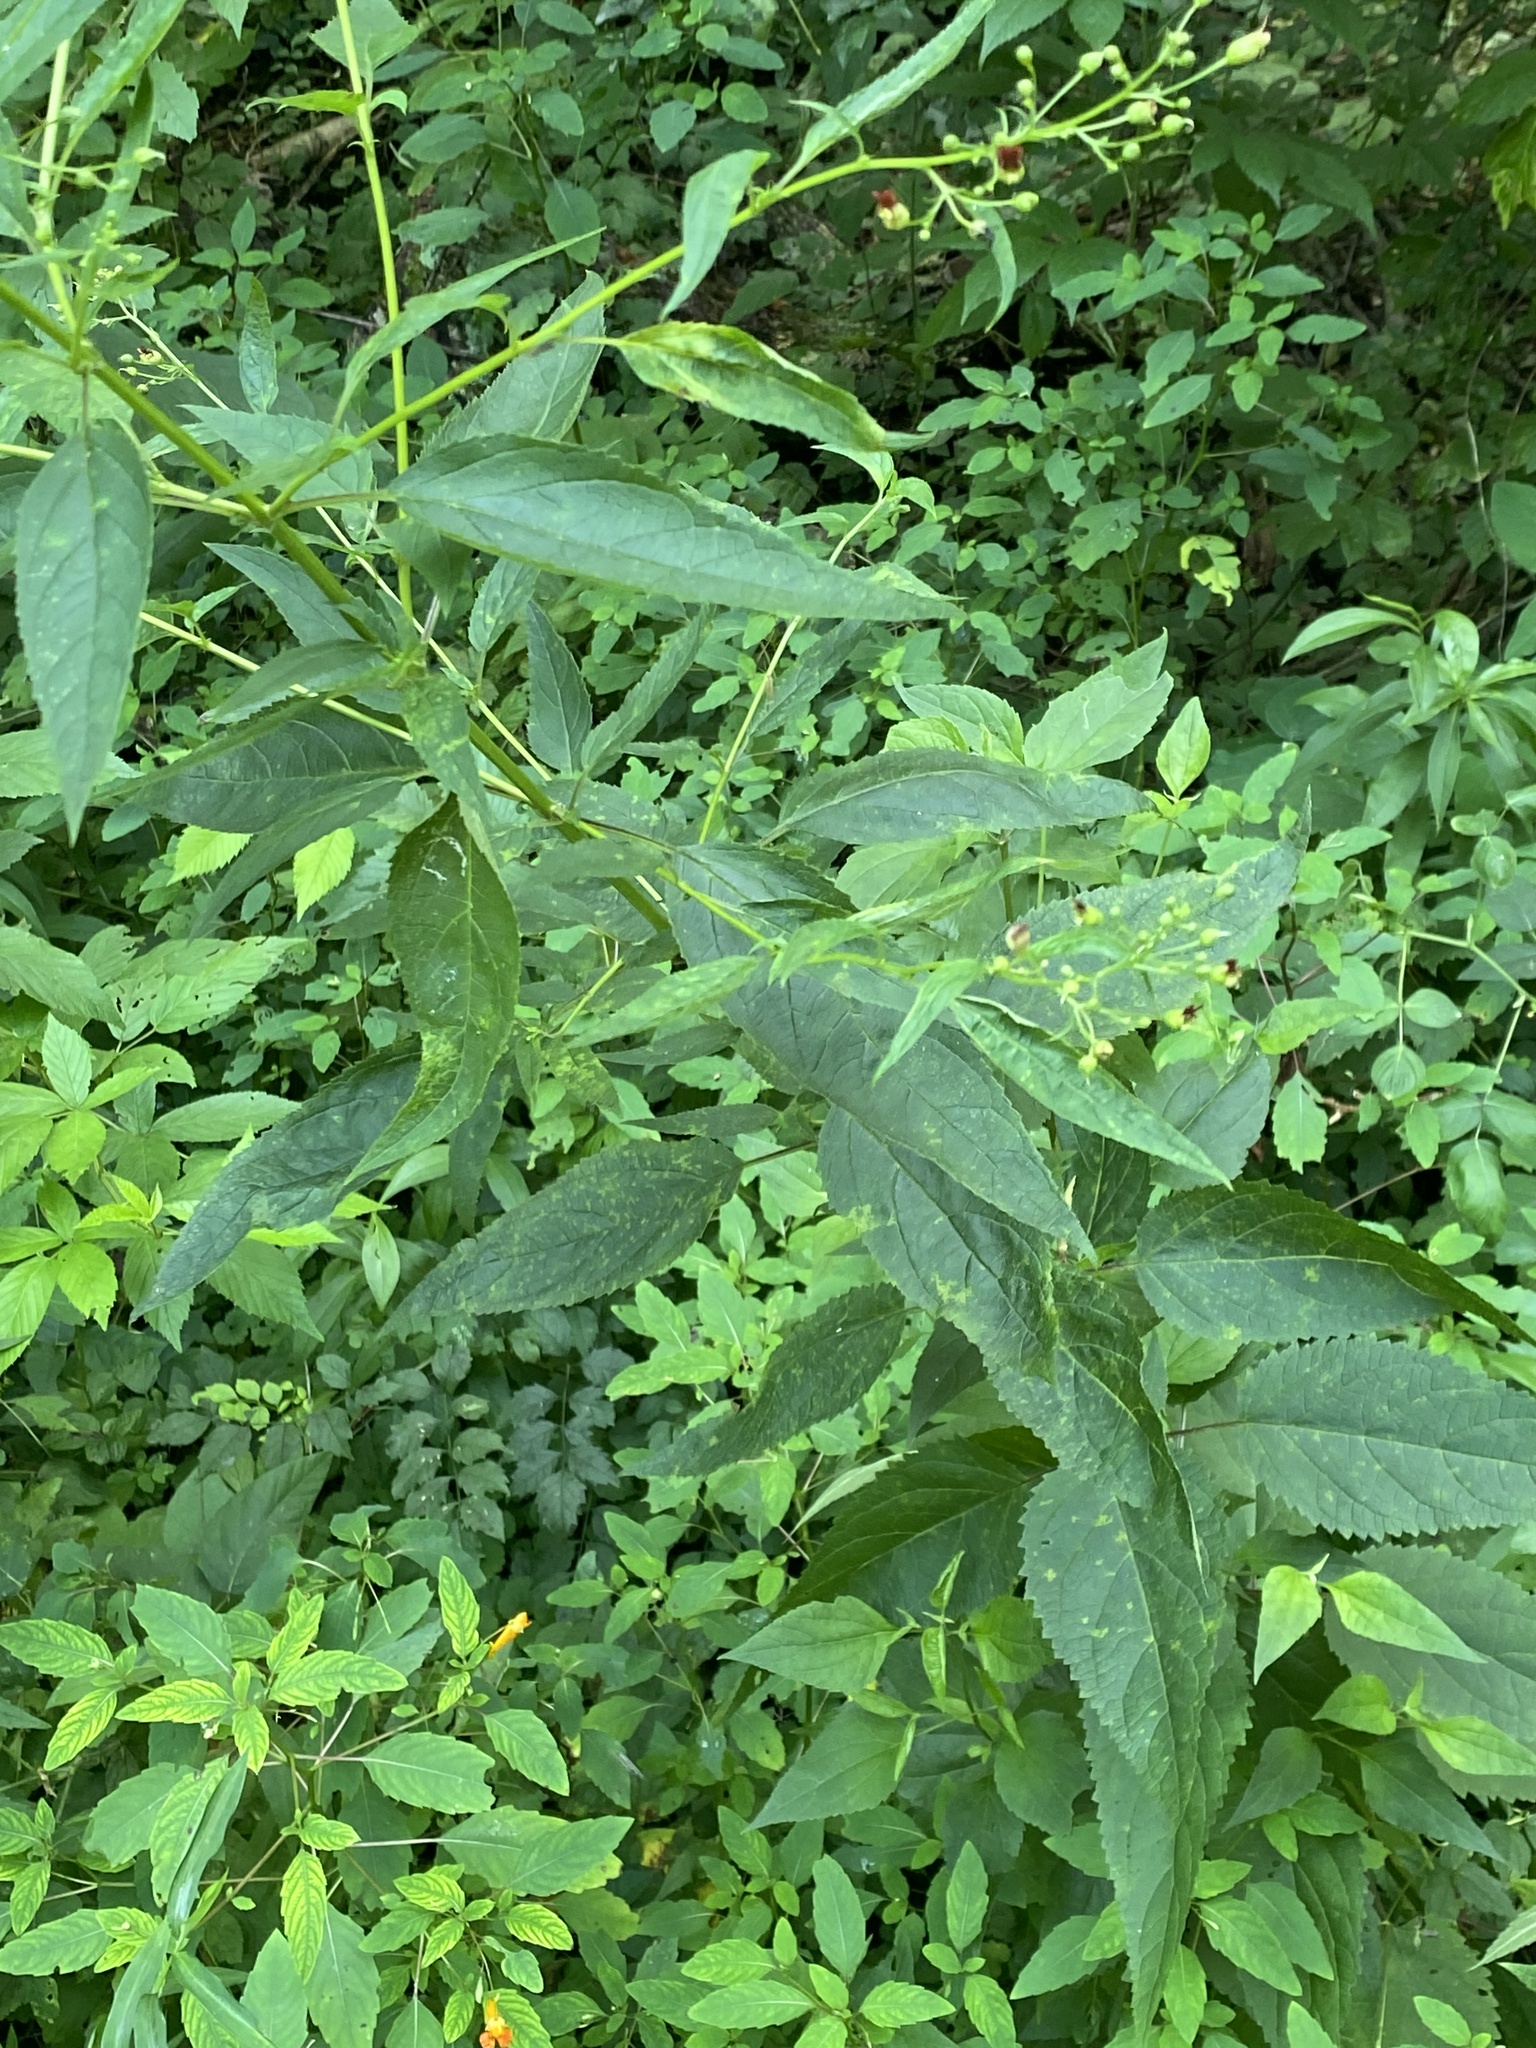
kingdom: Plantae
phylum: Tracheophyta
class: Magnoliopsida
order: Lamiales
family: Scrophulariaceae
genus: Scrophularia
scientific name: Scrophularia marilandica
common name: Eastern figwort
